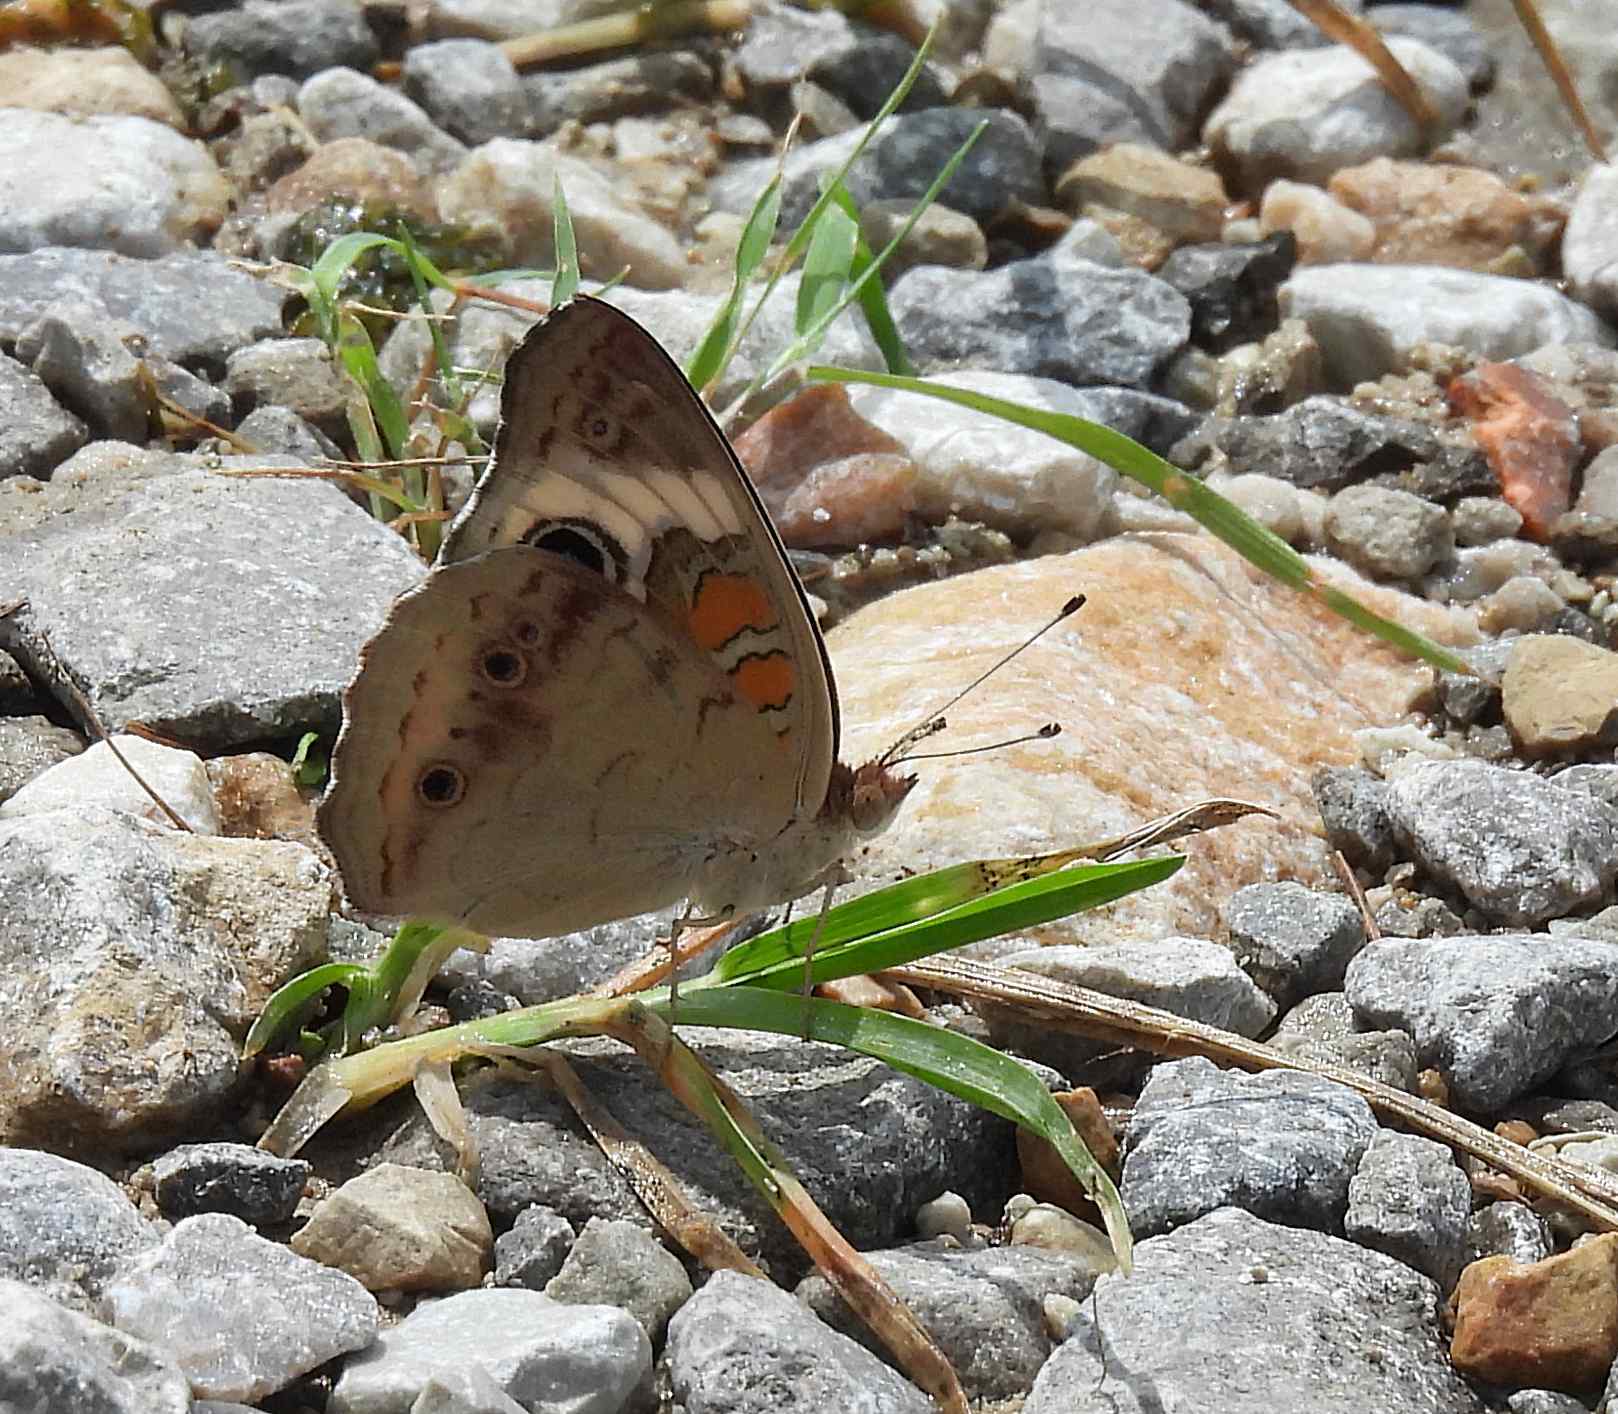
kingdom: Animalia
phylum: Arthropoda
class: Insecta
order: Lepidoptera
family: Nymphalidae
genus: Junonia
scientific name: Junonia coenia
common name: Common buckeye
